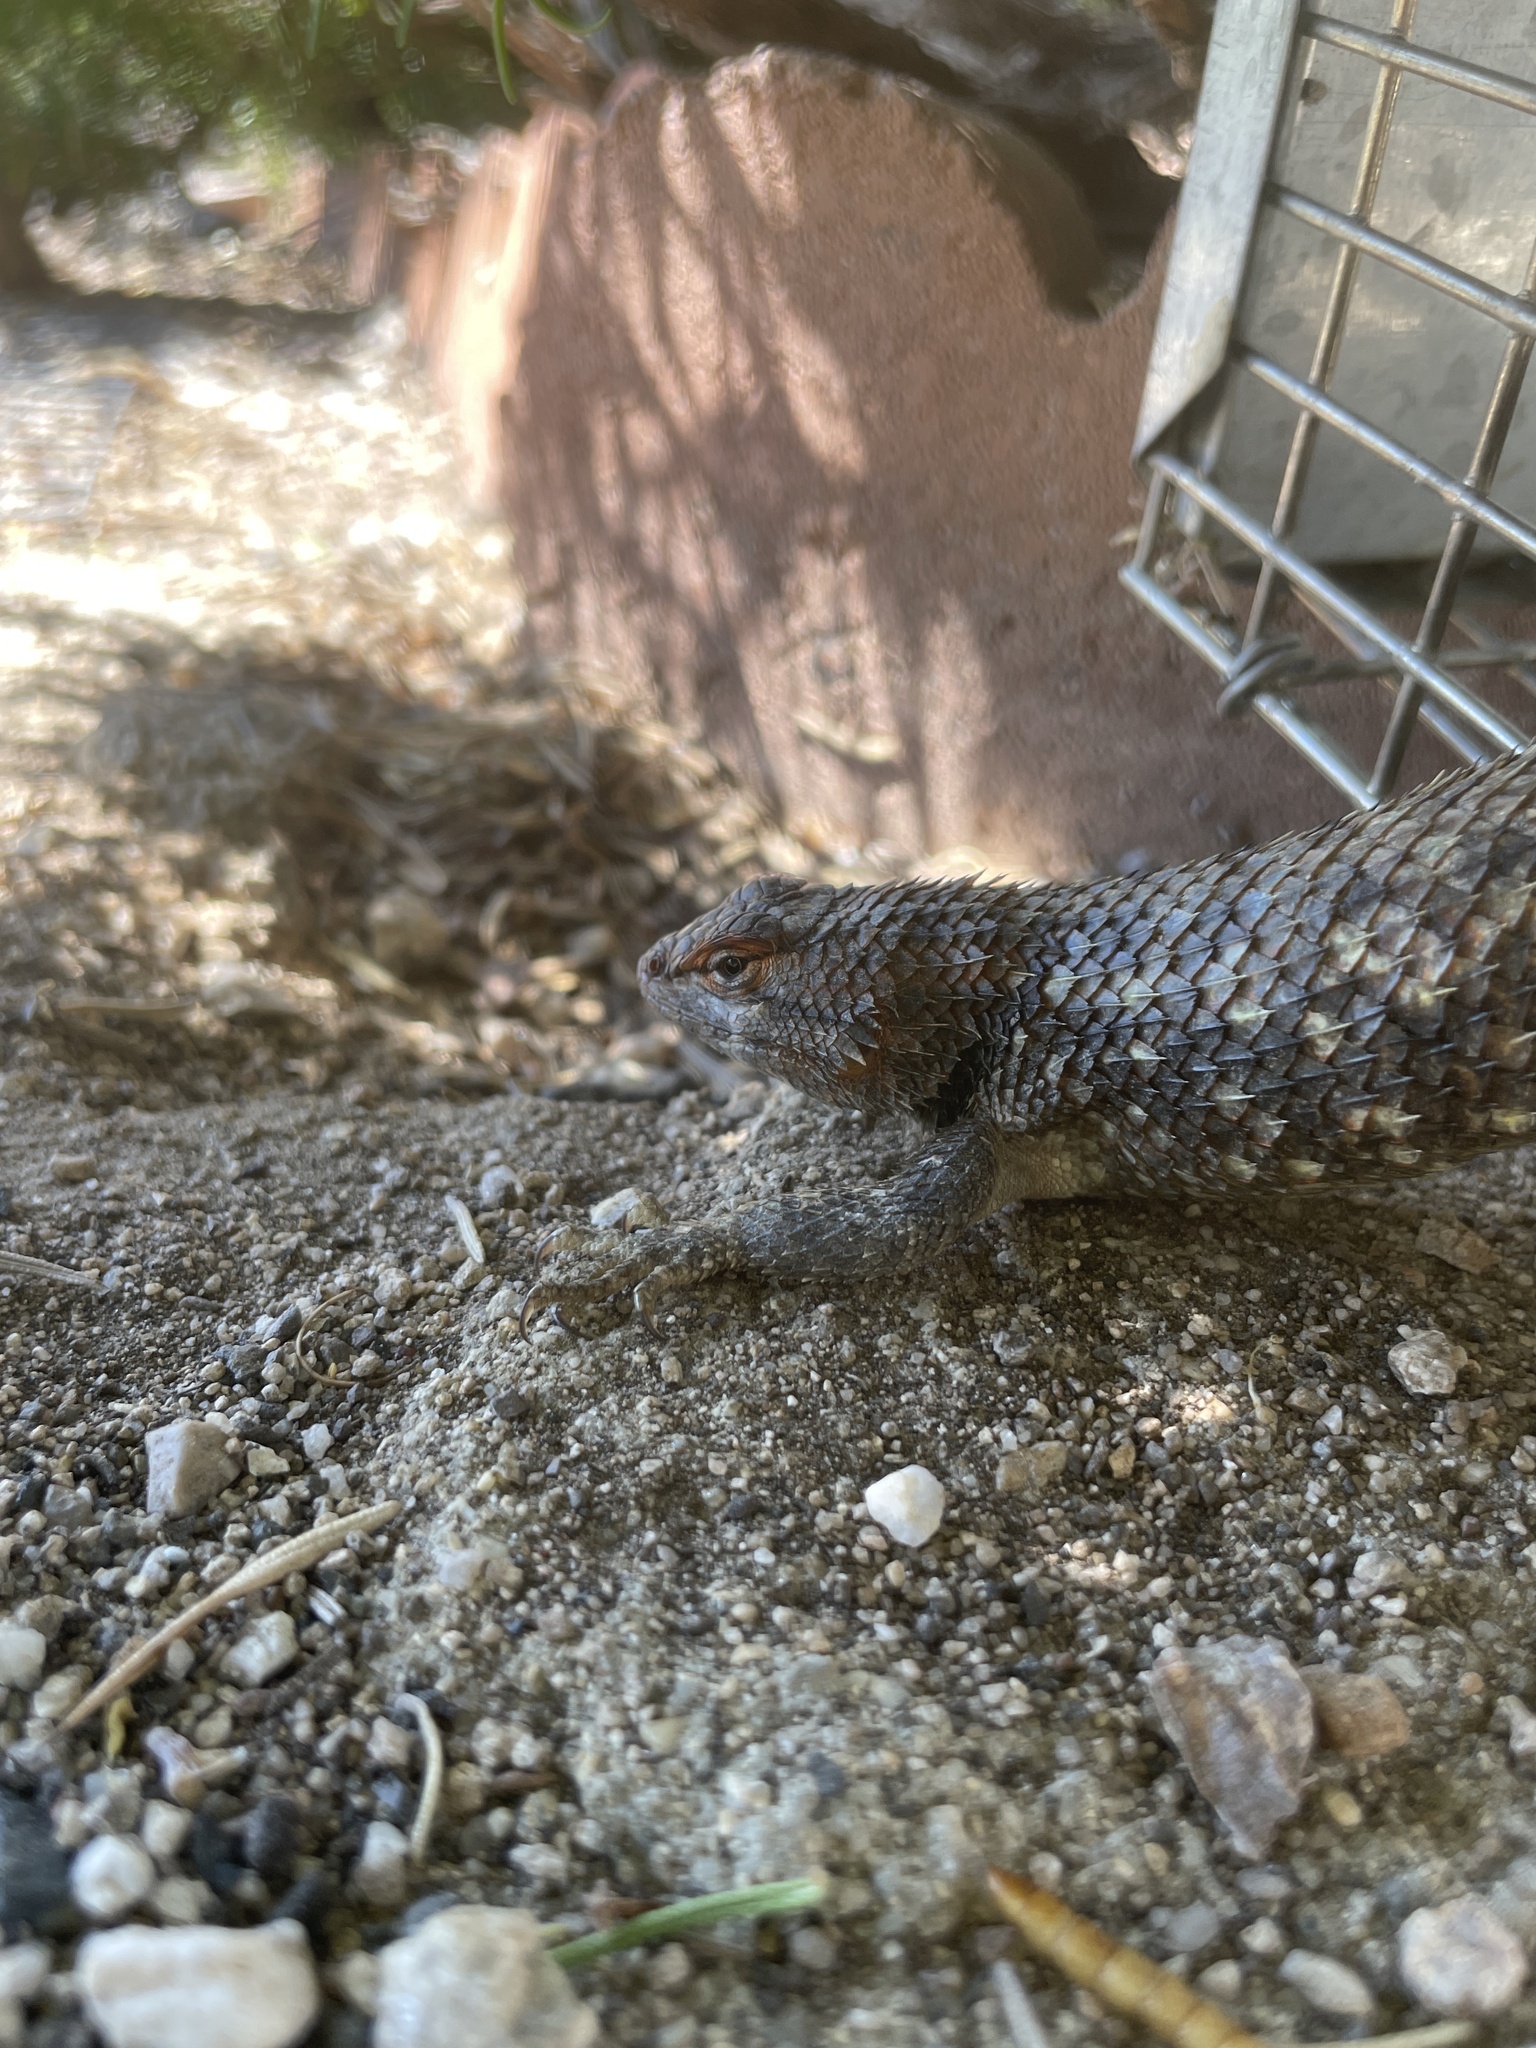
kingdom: Animalia
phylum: Chordata
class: Squamata
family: Phrynosomatidae
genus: Sceloporus
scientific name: Sceloporus magister
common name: Desert spiny lizard
